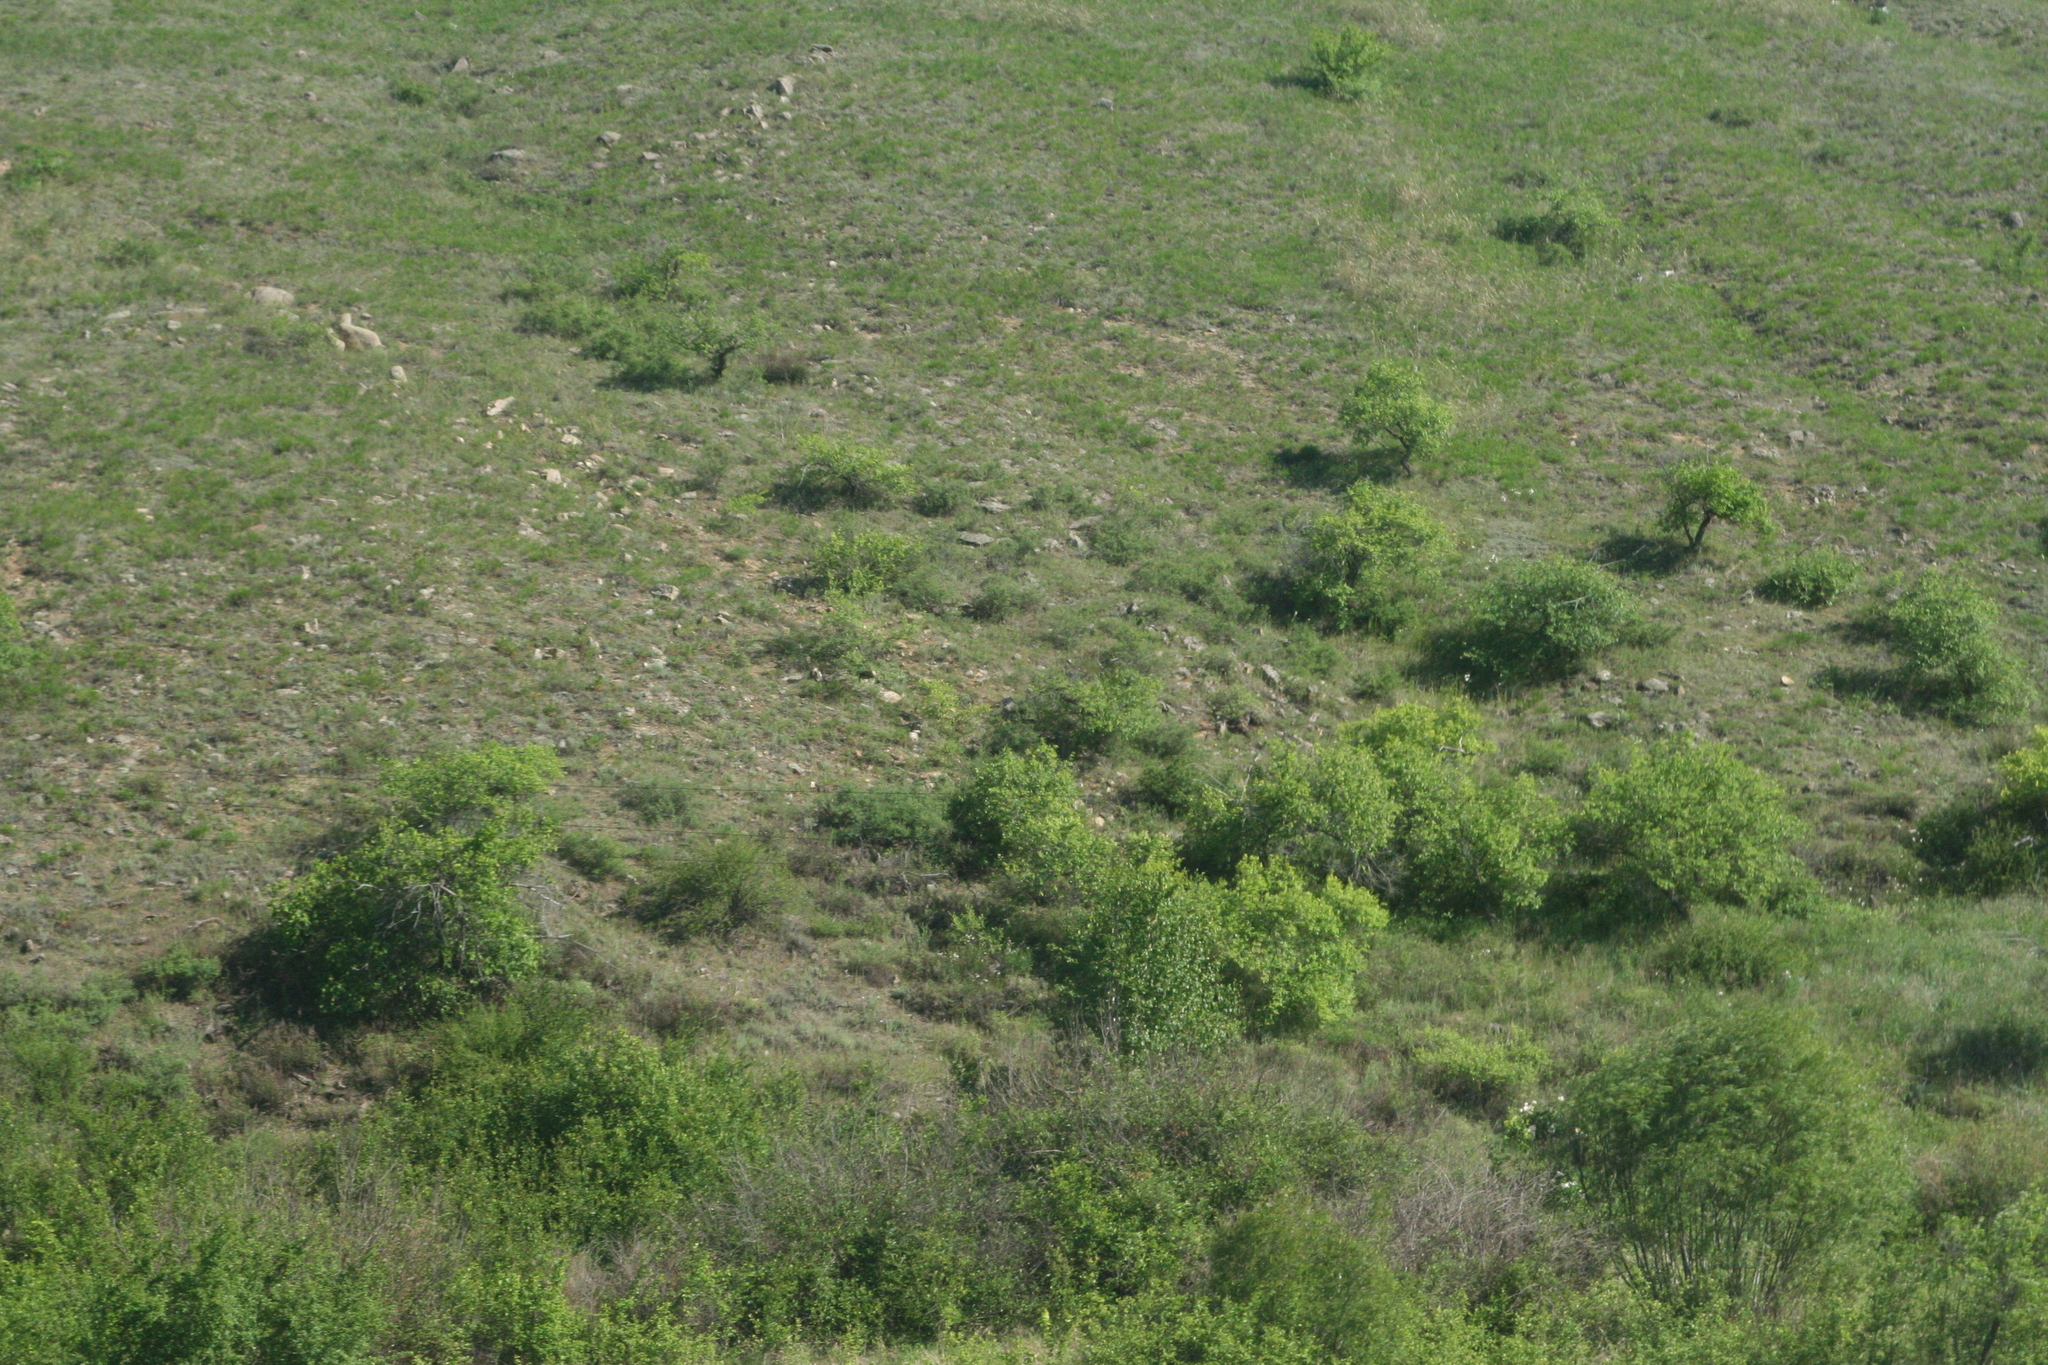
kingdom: Plantae
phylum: Tracheophyta
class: Magnoliopsida
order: Rosales
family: Ulmaceae
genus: Ulmus
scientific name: Ulmus pumila
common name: Siberian elm
